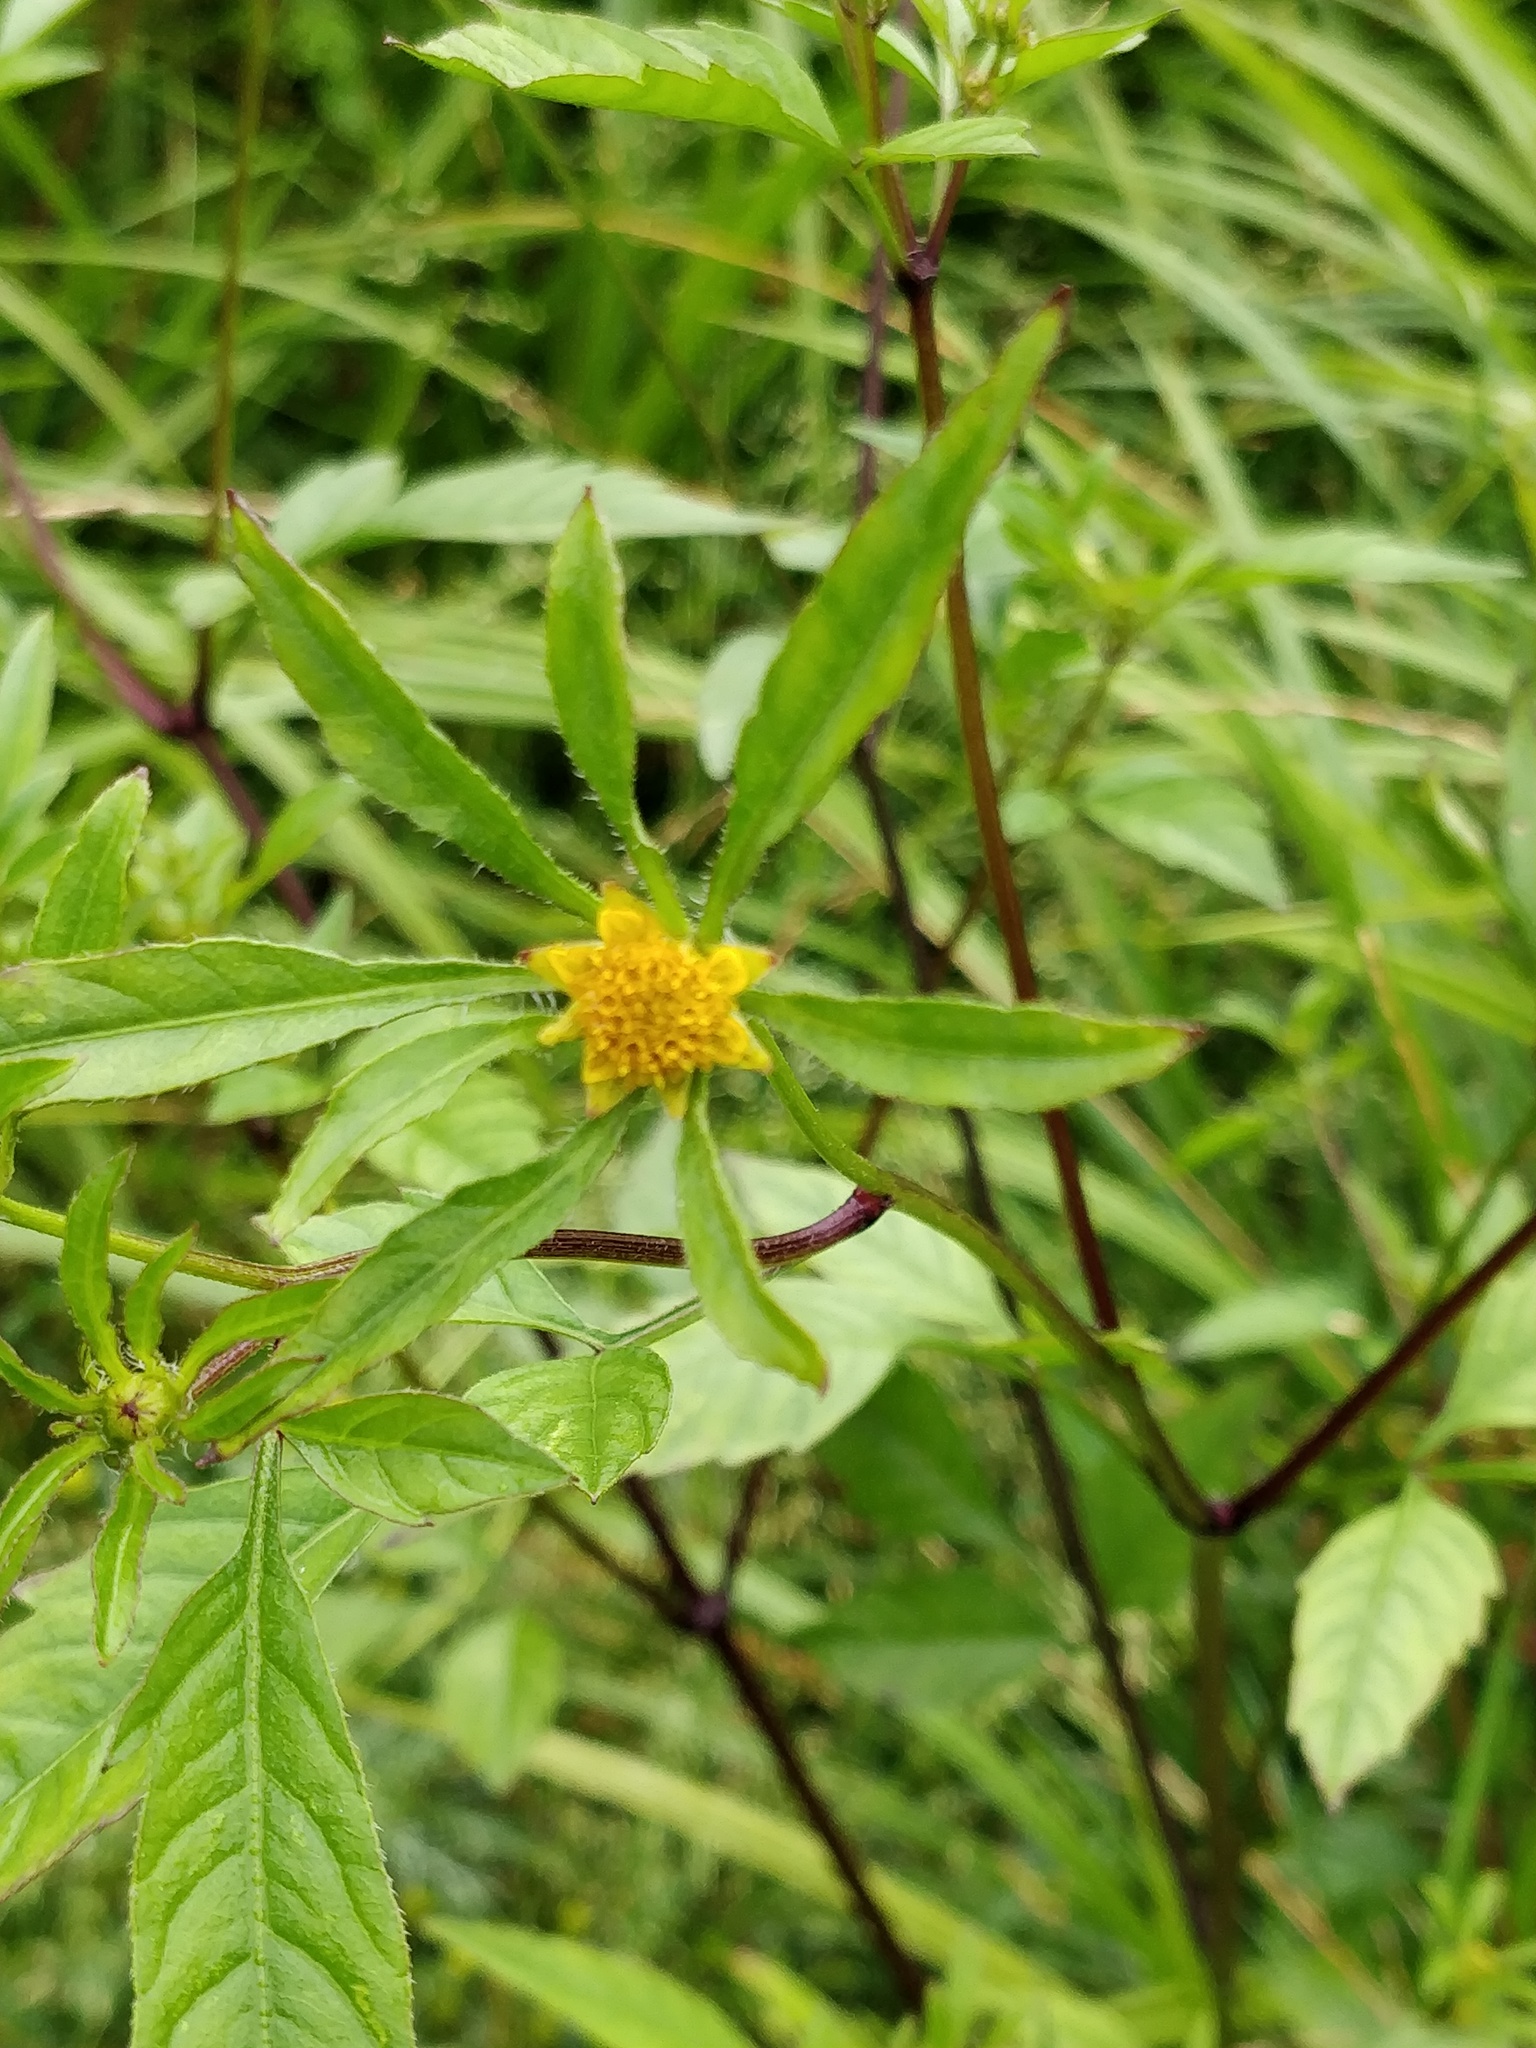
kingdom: Plantae
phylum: Tracheophyta
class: Magnoliopsida
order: Asterales
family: Asteraceae
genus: Bidens
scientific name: Bidens frondosa
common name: Beggarticks
